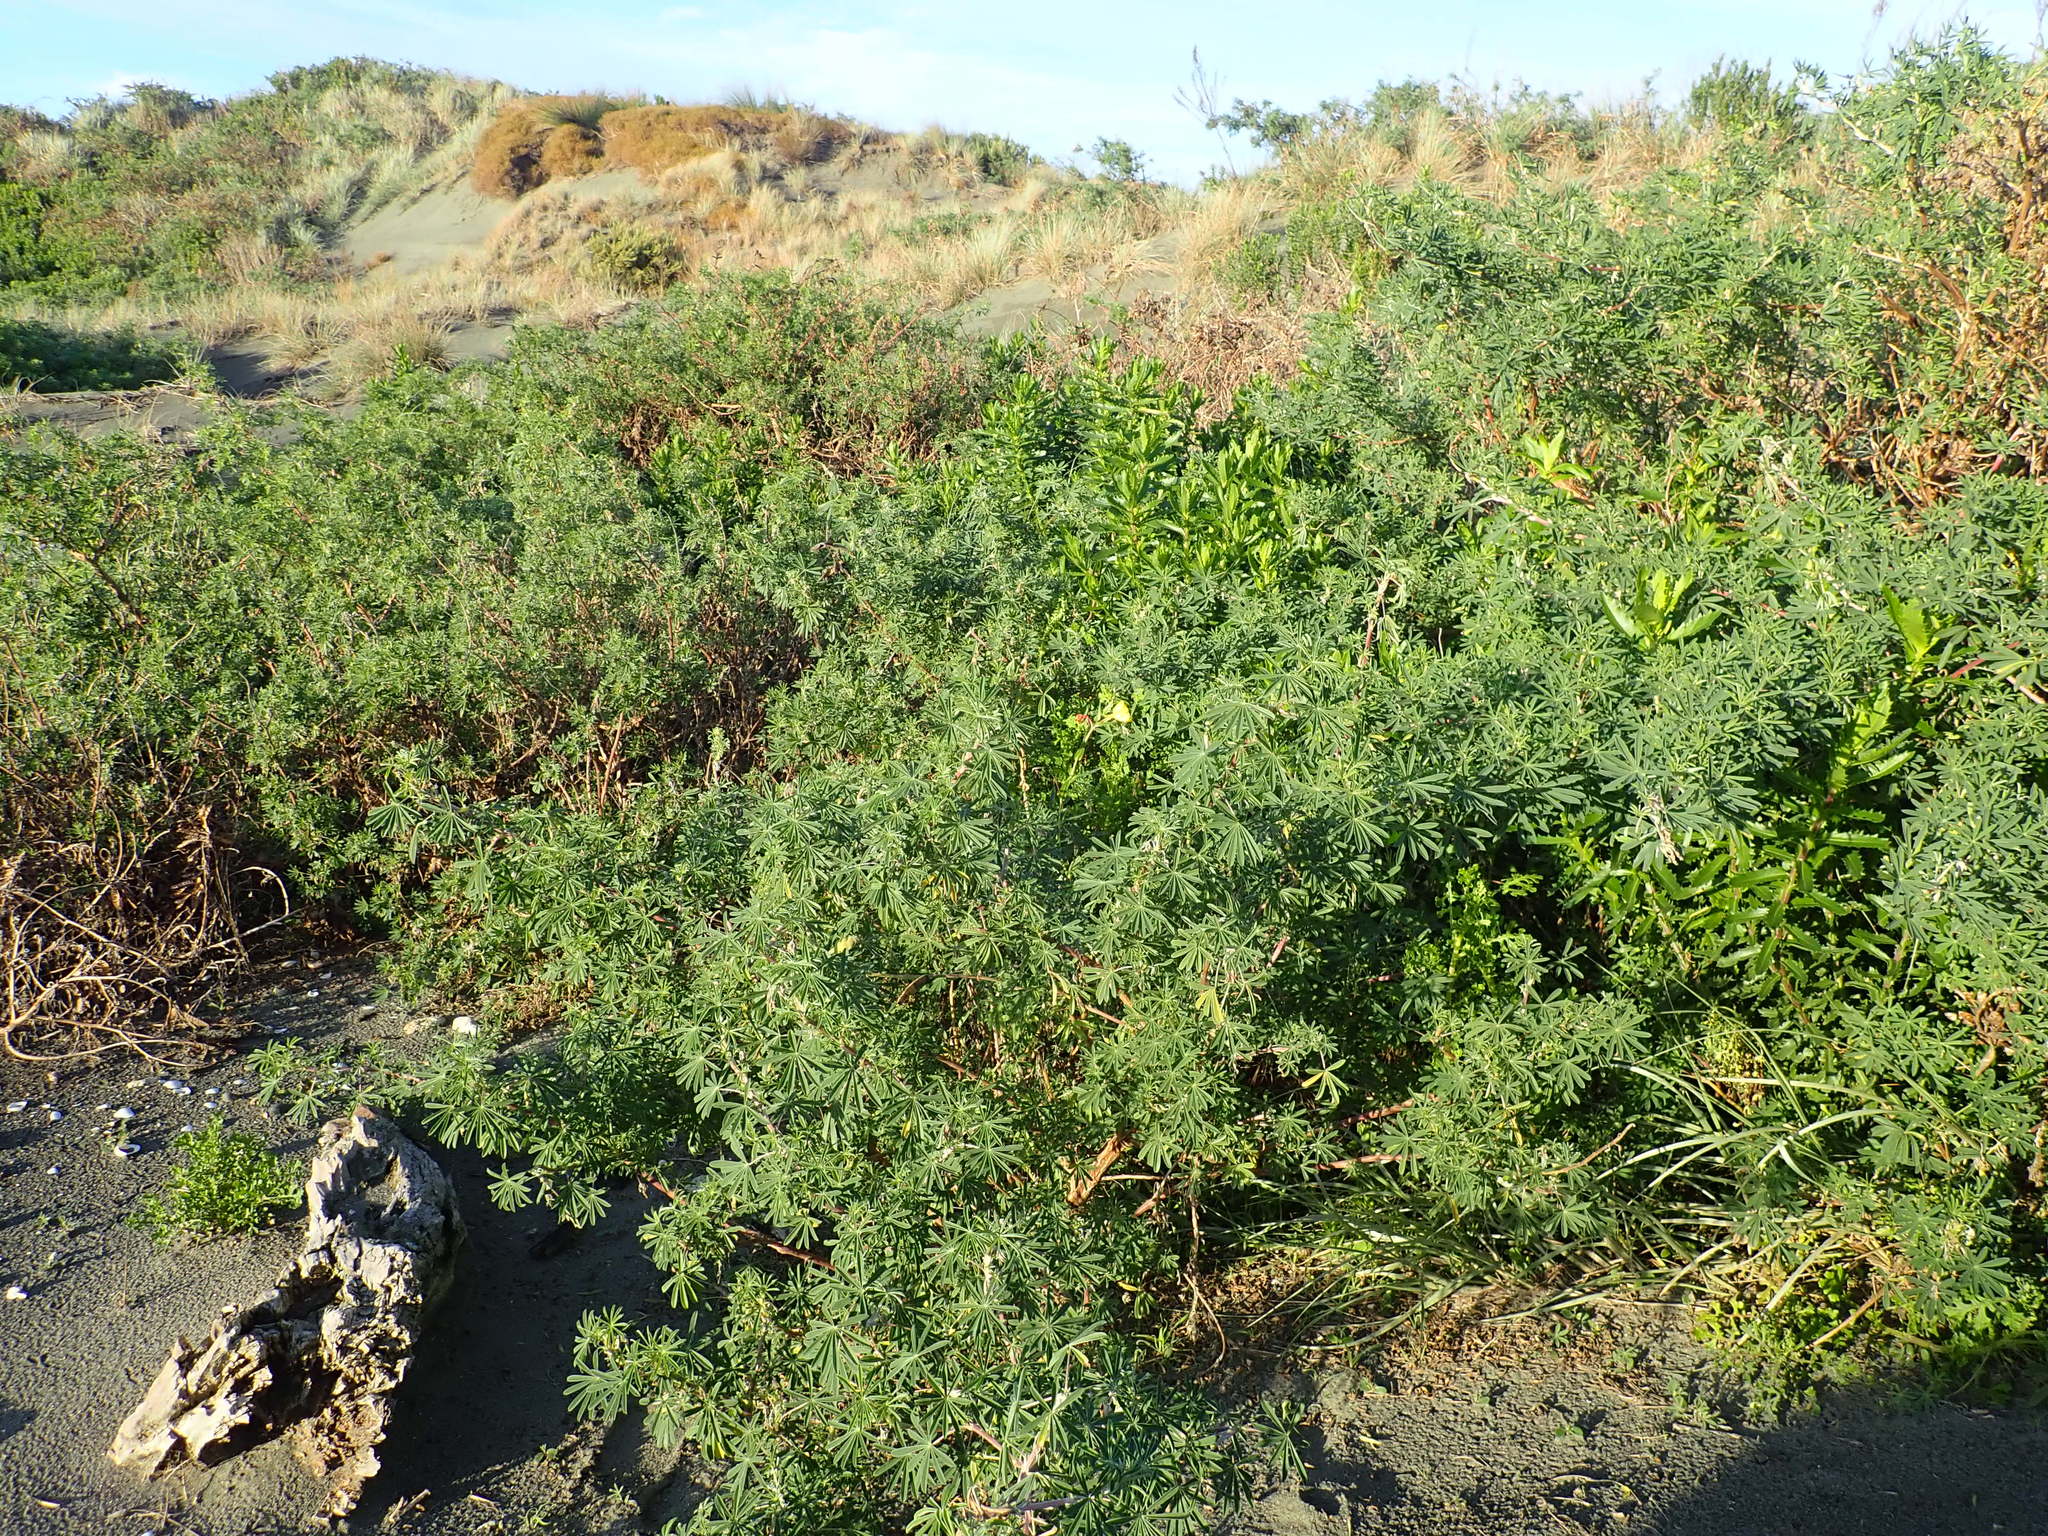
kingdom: Plantae
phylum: Tracheophyta
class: Magnoliopsida
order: Myrtales
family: Onagraceae
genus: Oenothera
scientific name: Oenothera stricta
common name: Fragrant evening-primrose
